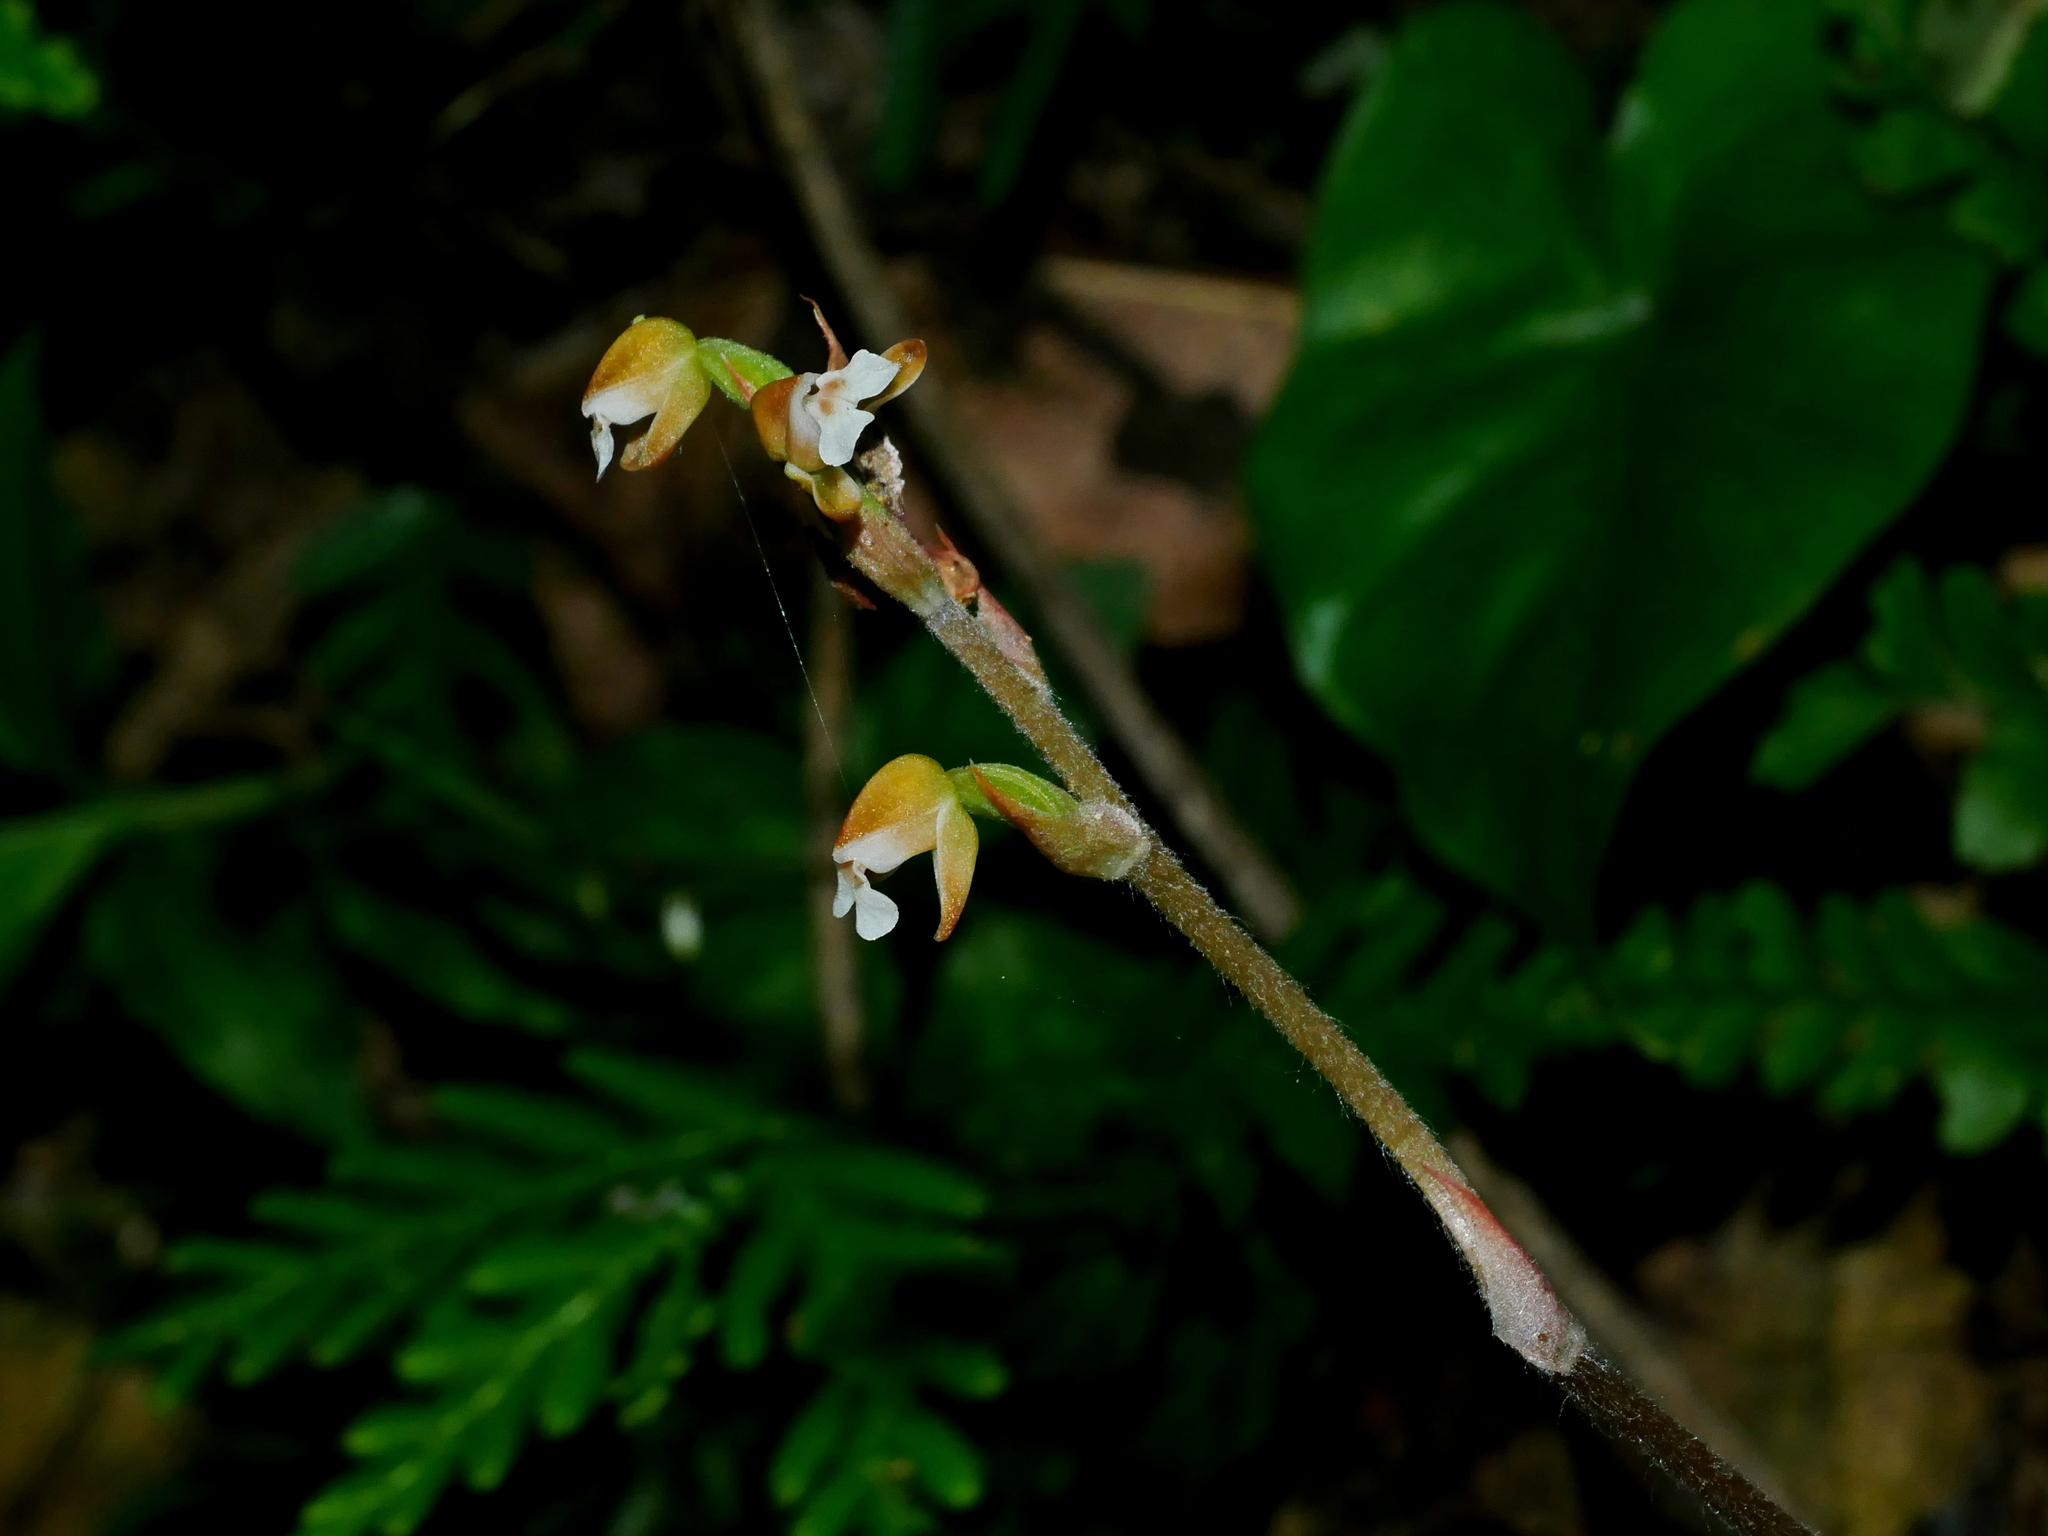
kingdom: Plantae
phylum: Tracheophyta
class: Liliopsida
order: Asparagales
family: Orchidaceae
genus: Zeuxine
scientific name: Zeuxine nervosa
